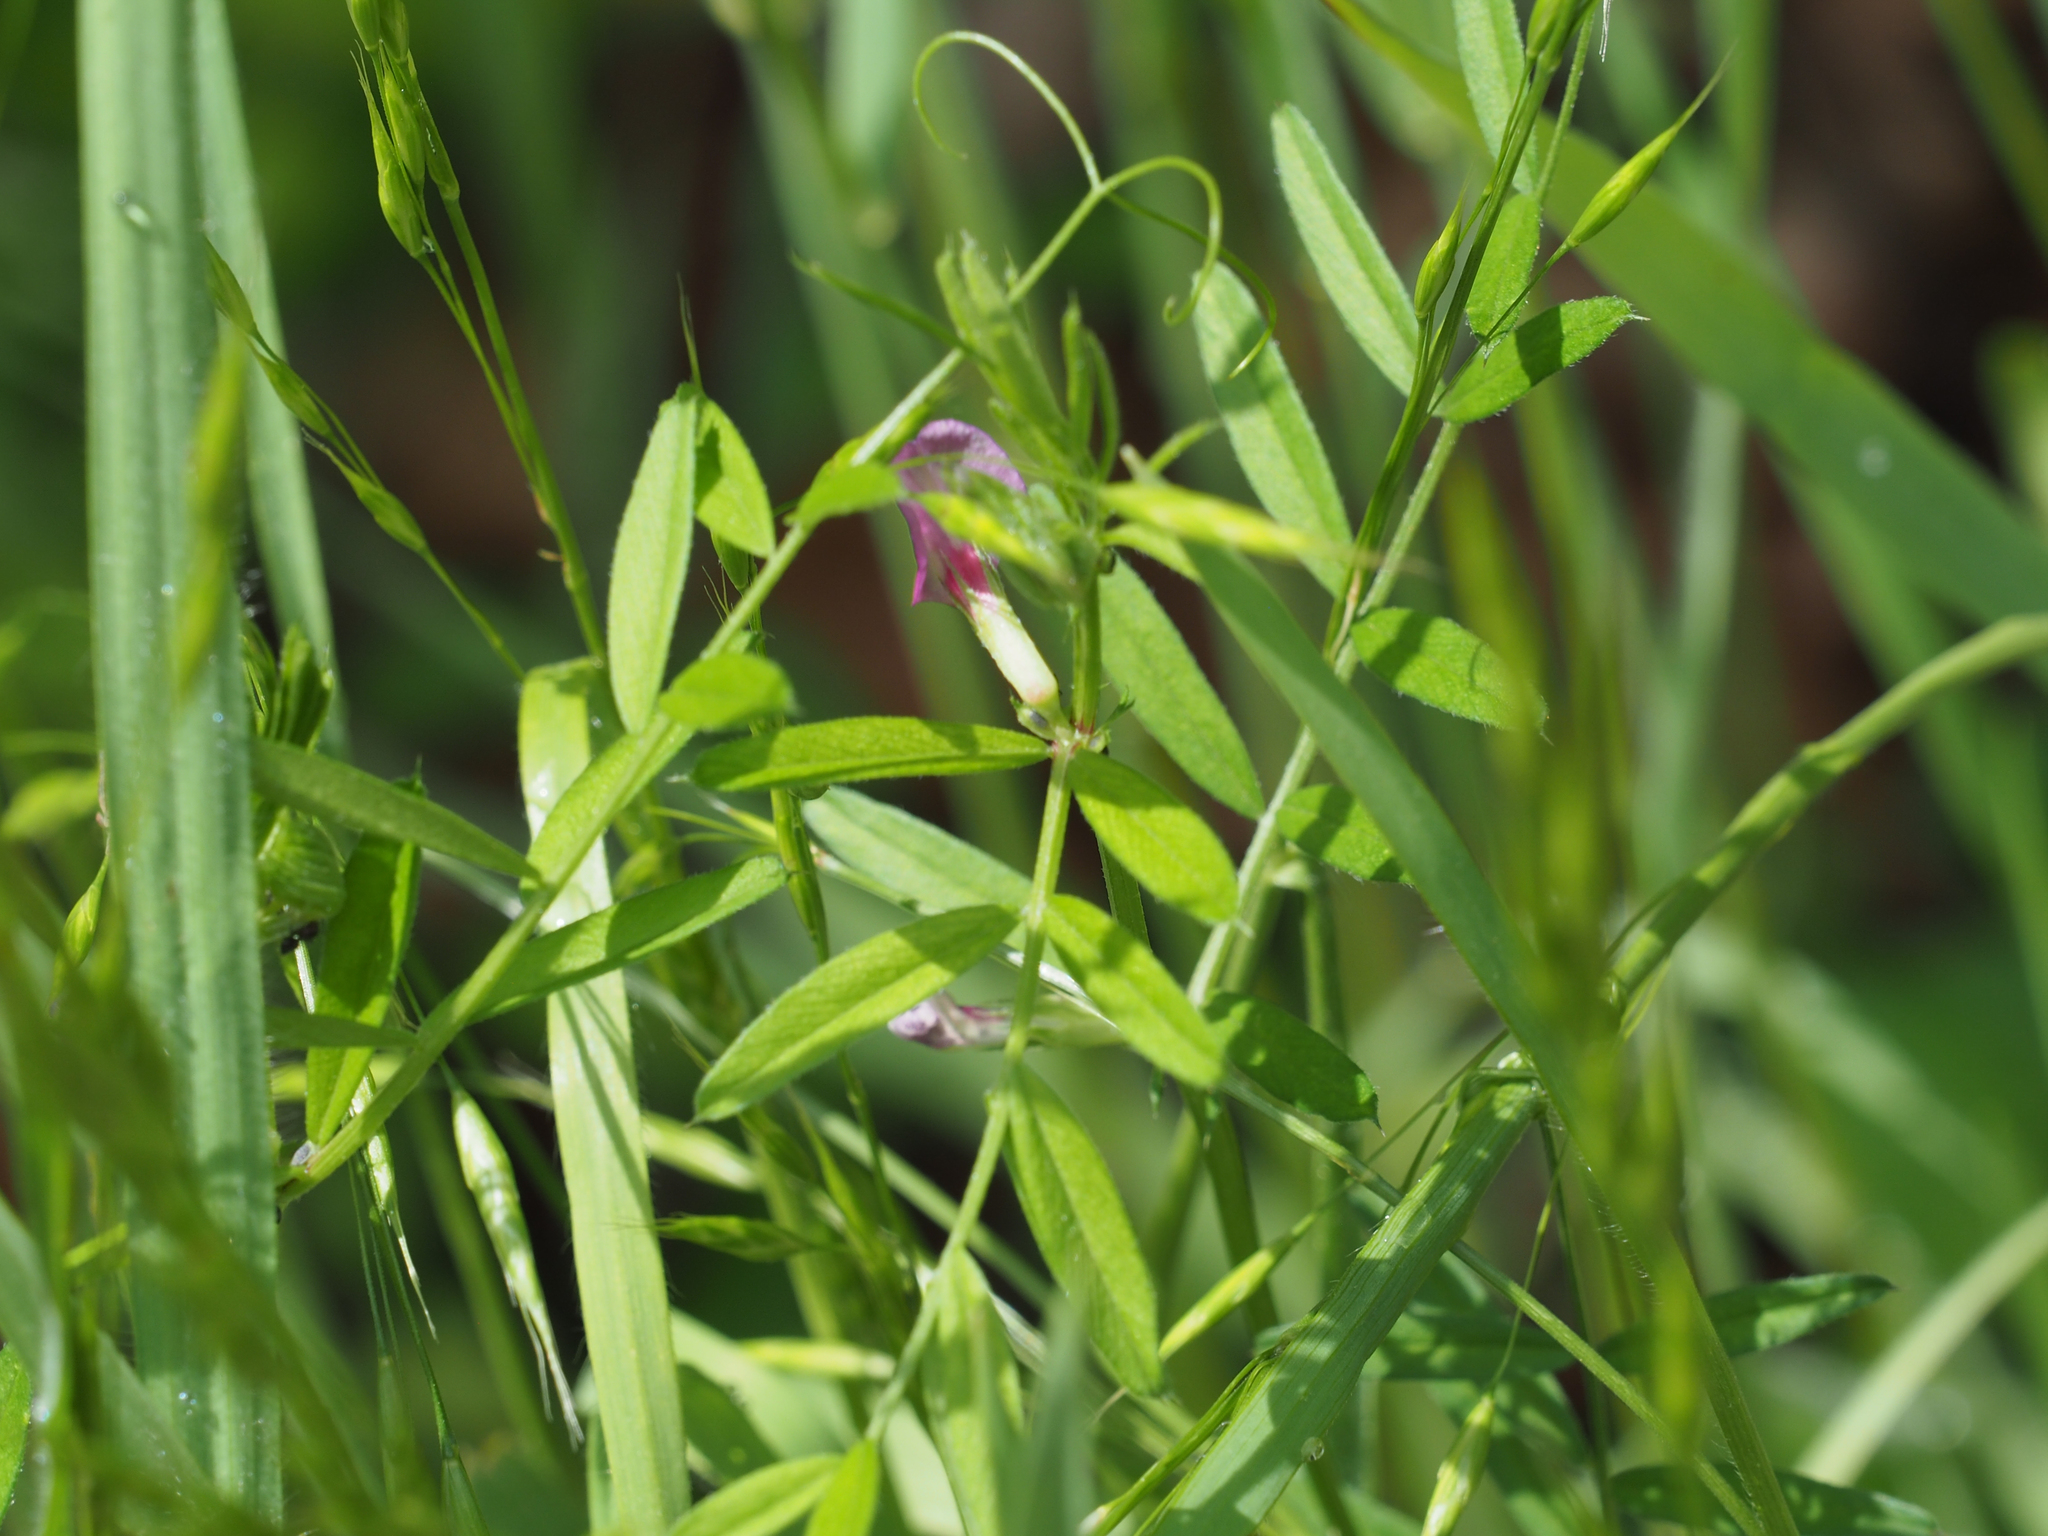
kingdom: Plantae
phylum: Tracheophyta
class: Magnoliopsida
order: Fabales
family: Fabaceae
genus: Vicia
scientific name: Vicia sativa
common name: Garden vetch
